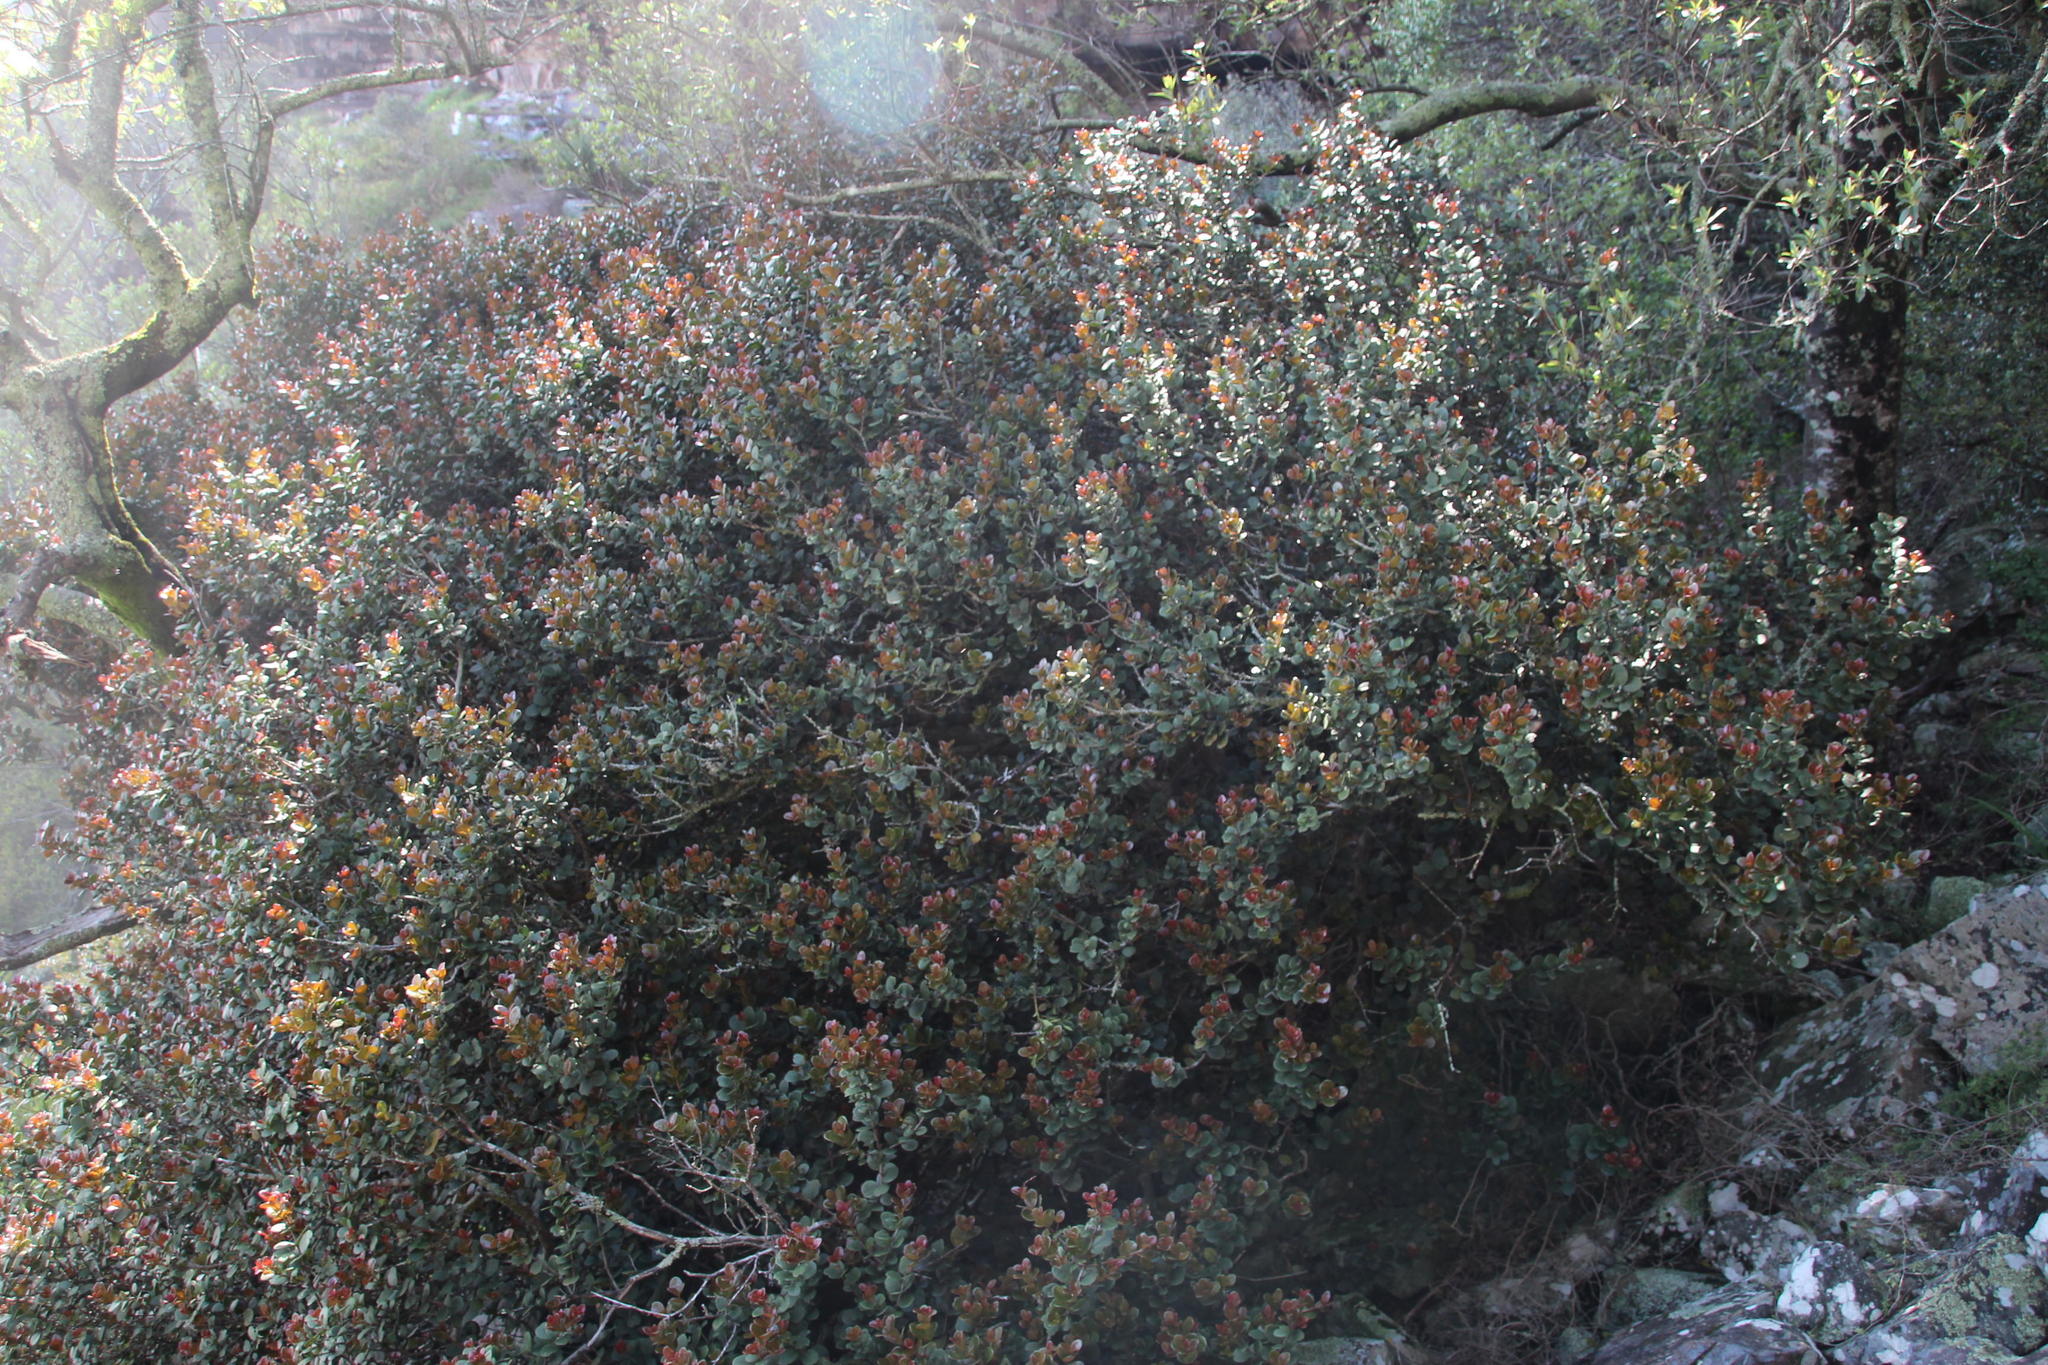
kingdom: Plantae
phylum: Tracheophyta
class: Magnoliopsida
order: Celastrales
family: Celastraceae
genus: Maurocenia
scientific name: Maurocenia frangula
